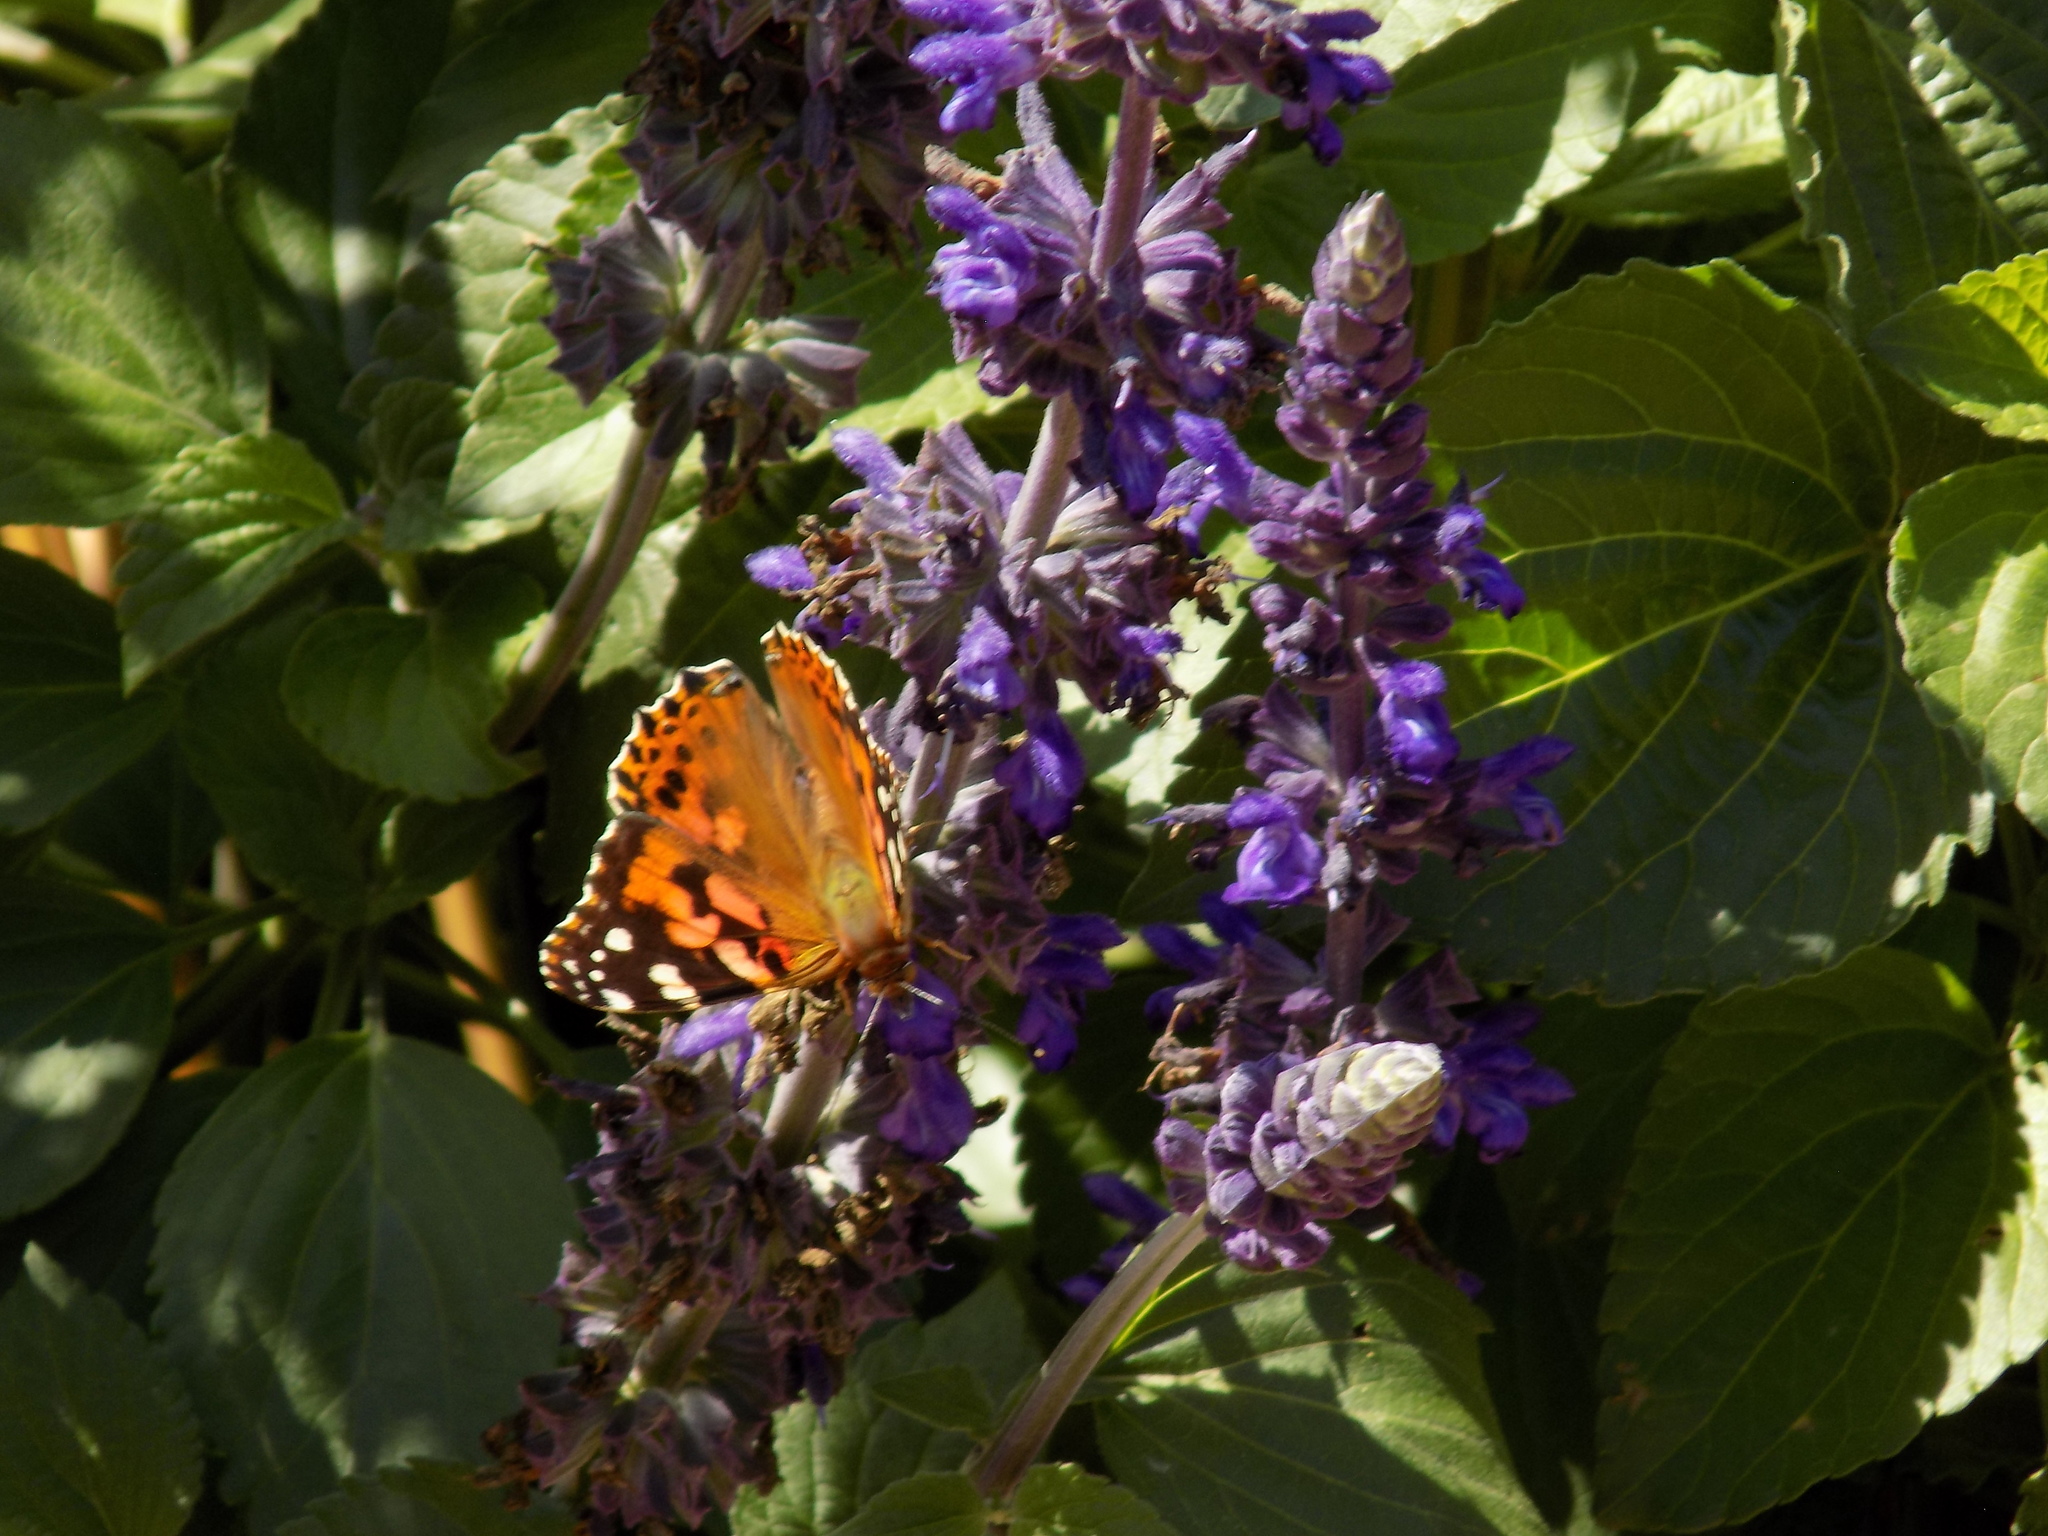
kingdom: Animalia
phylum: Arthropoda
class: Insecta
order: Lepidoptera
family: Nymphalidae
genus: Vanessa
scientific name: Vanessa cardui
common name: Painted lady
